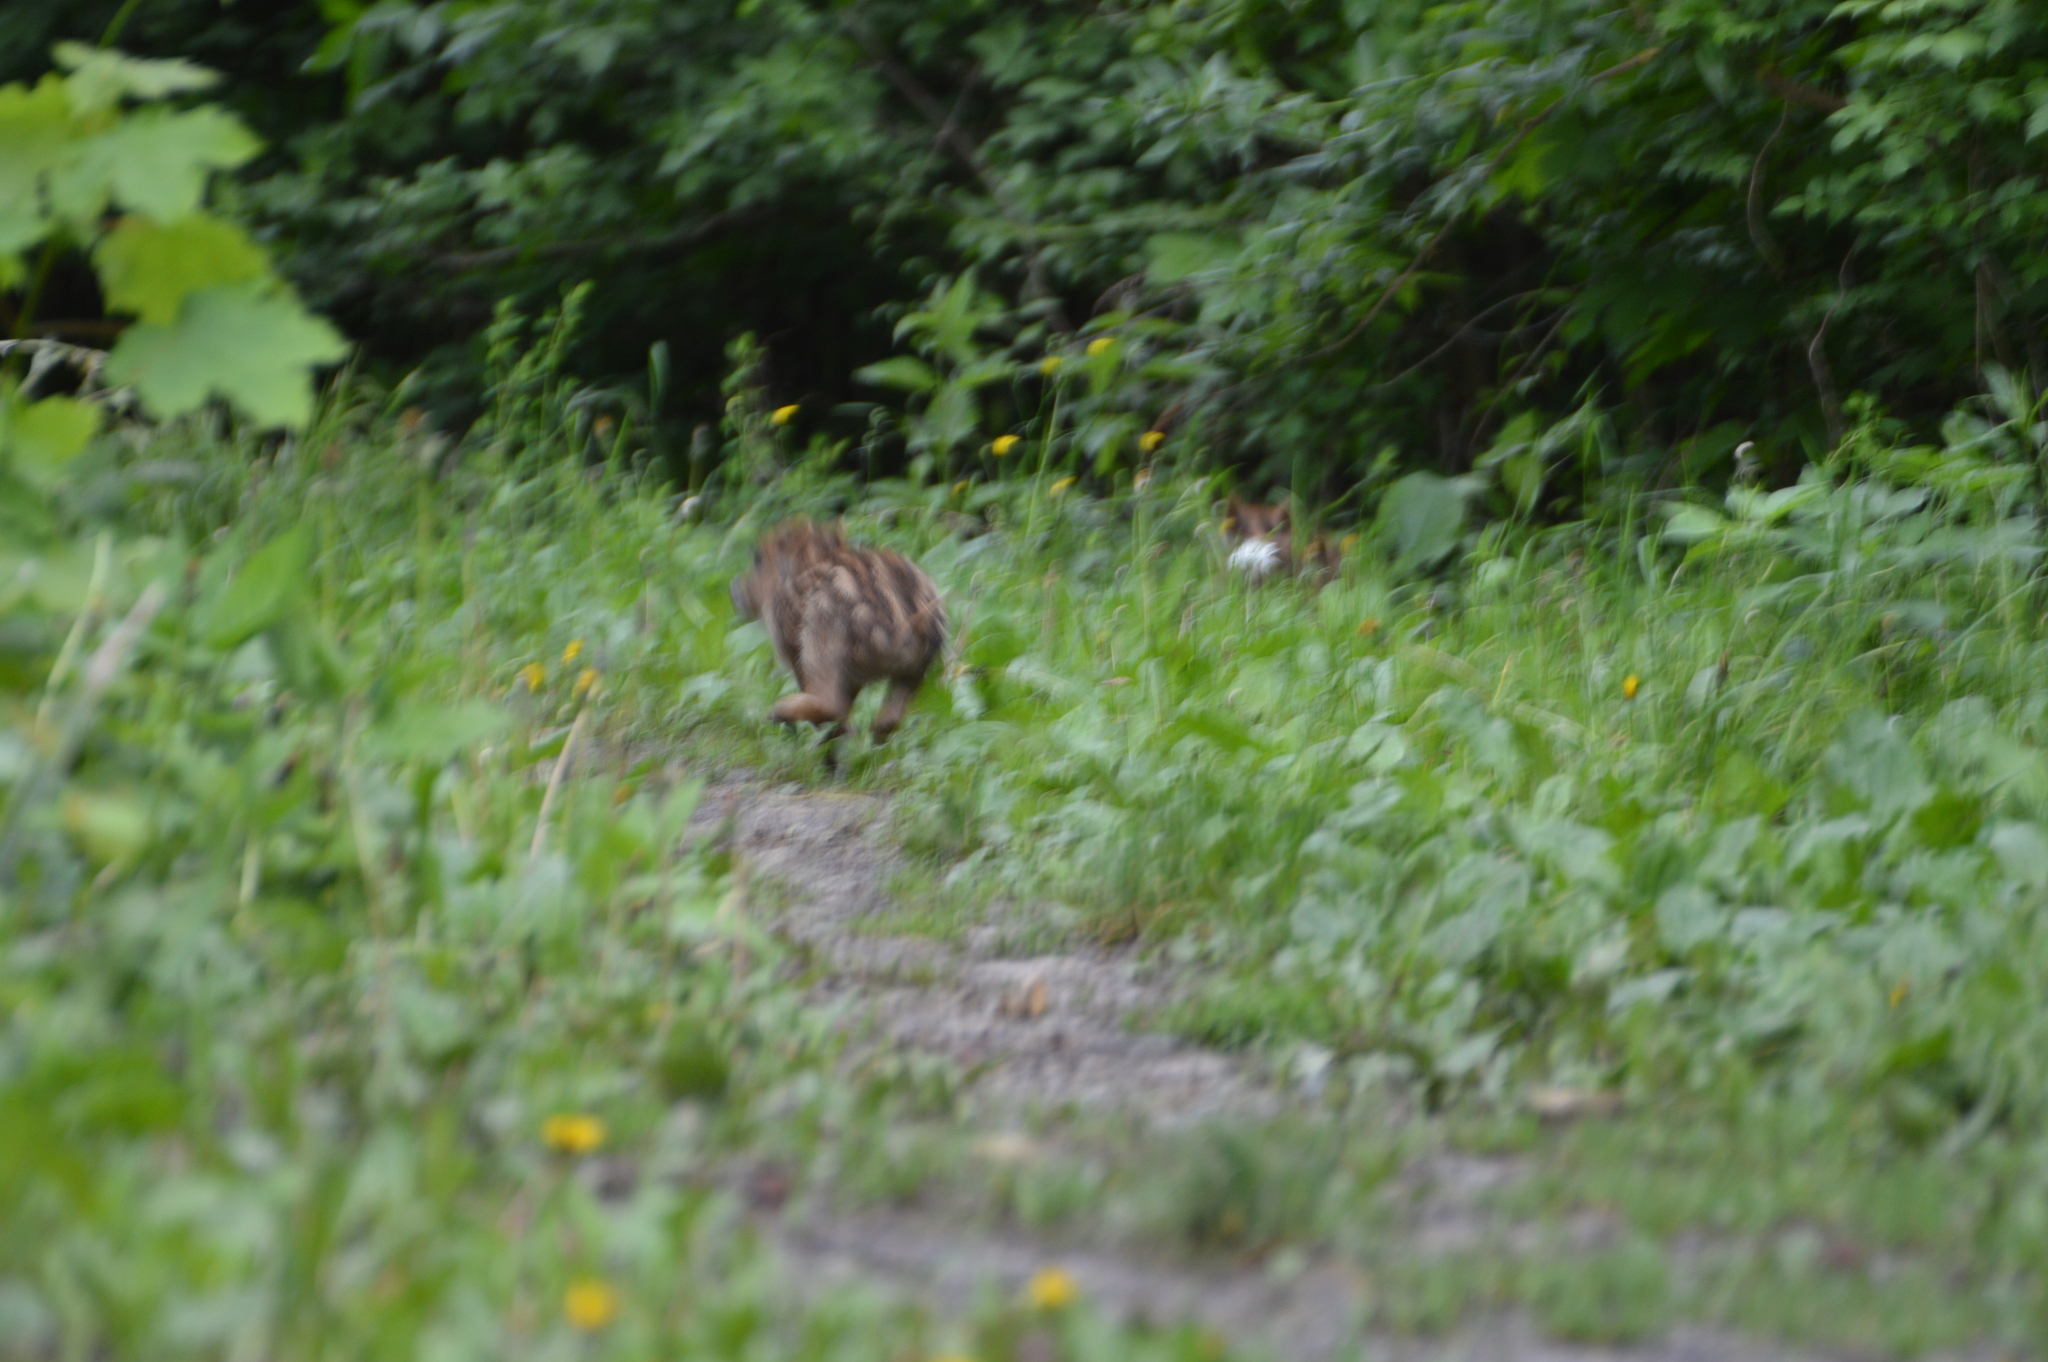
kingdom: Animalia
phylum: Chordata
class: Mammalia
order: Artiodactyla
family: Suidae
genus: Sus
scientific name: Sus scrofa
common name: Wild boar
